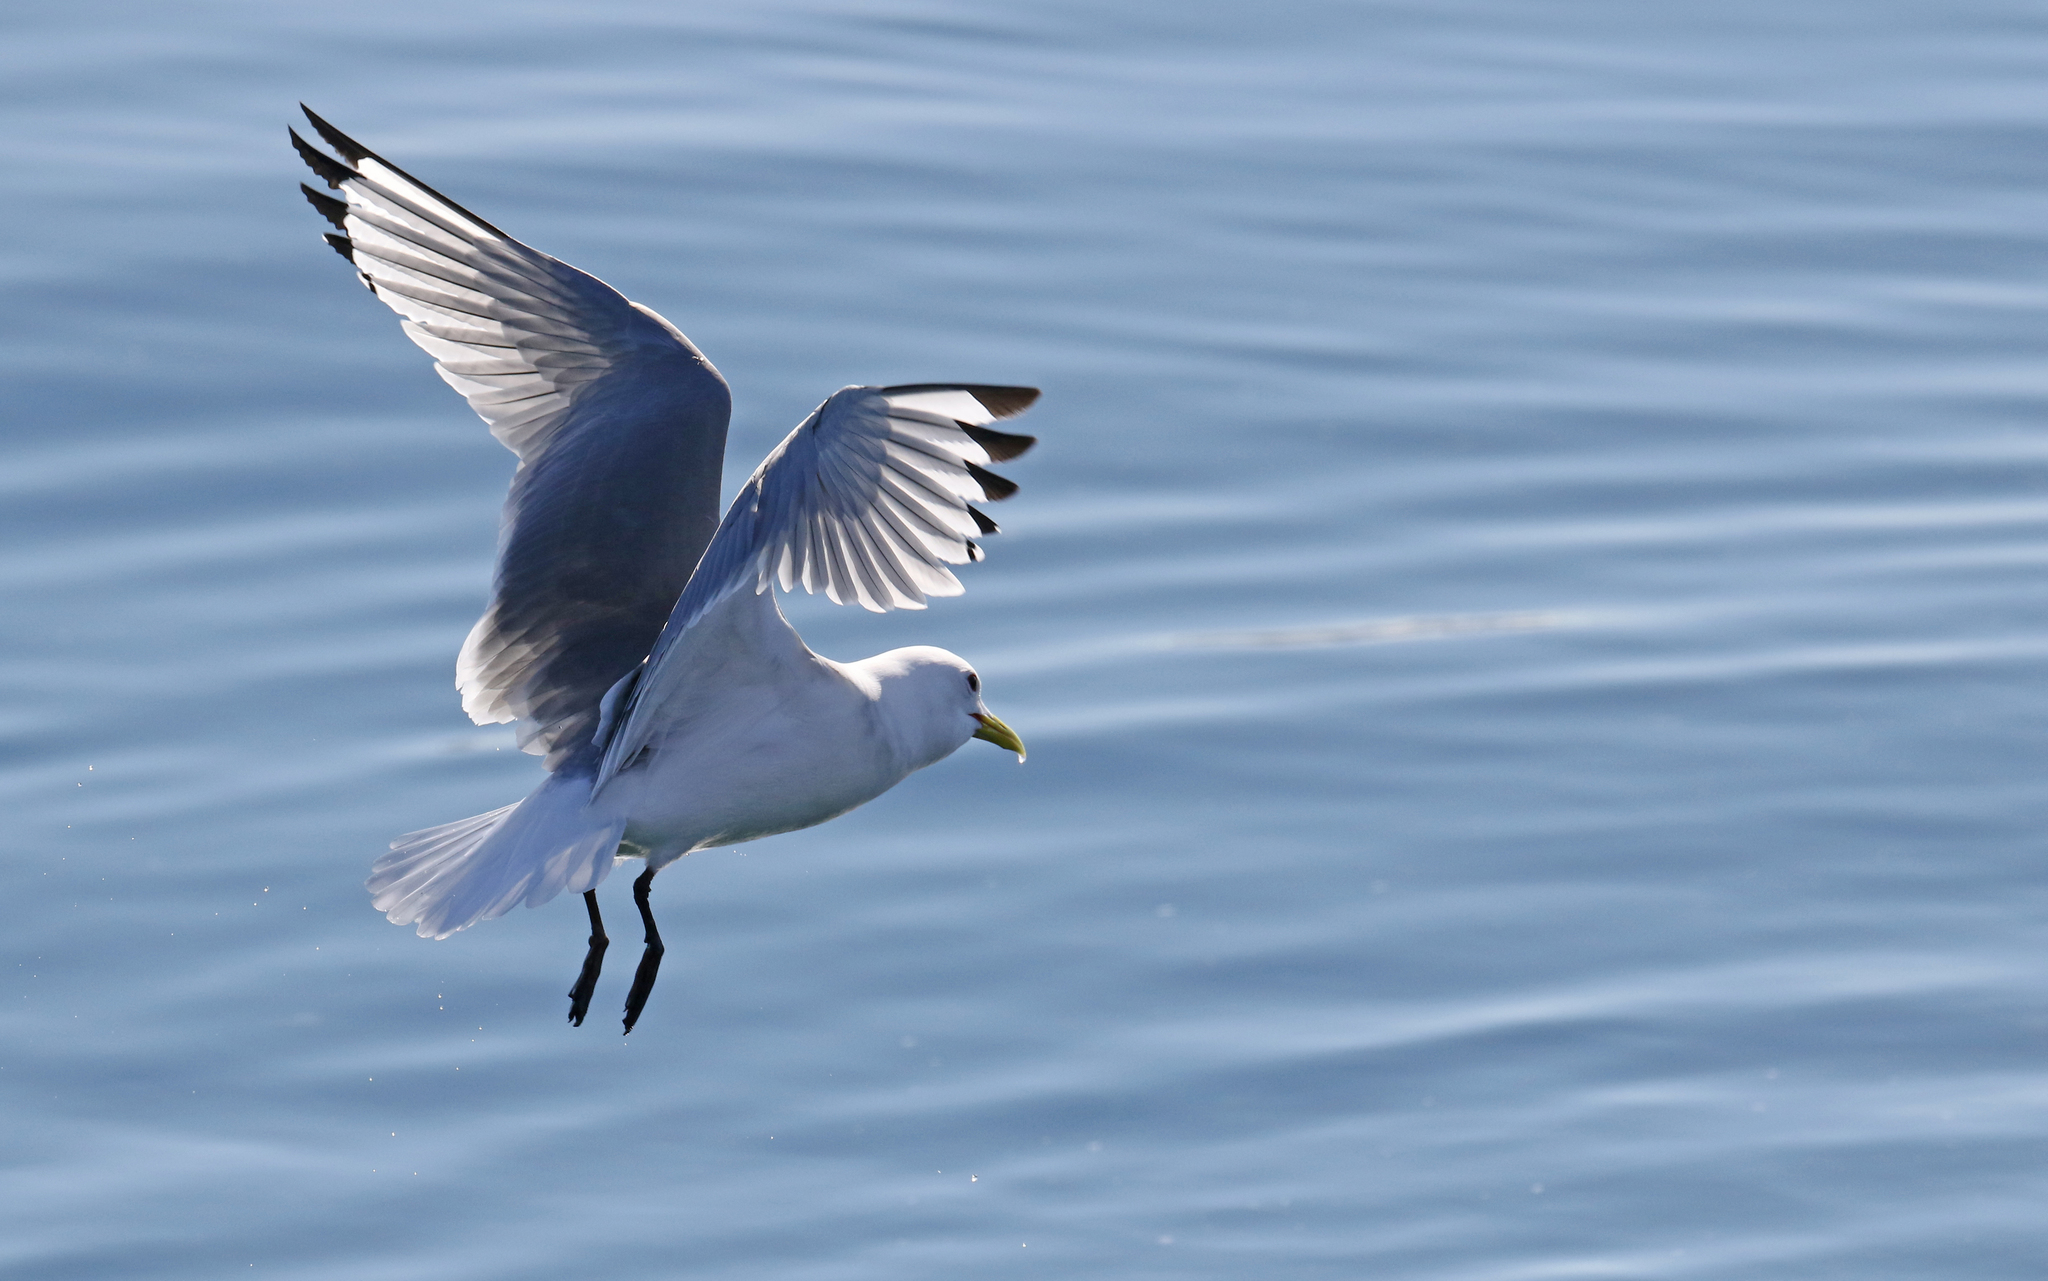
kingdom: Animalia
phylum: Chordata
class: Aves
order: Charadriiformes
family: Laridae
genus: Rissa
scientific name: Rissa tridactyla
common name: Black-legged kittiwake
